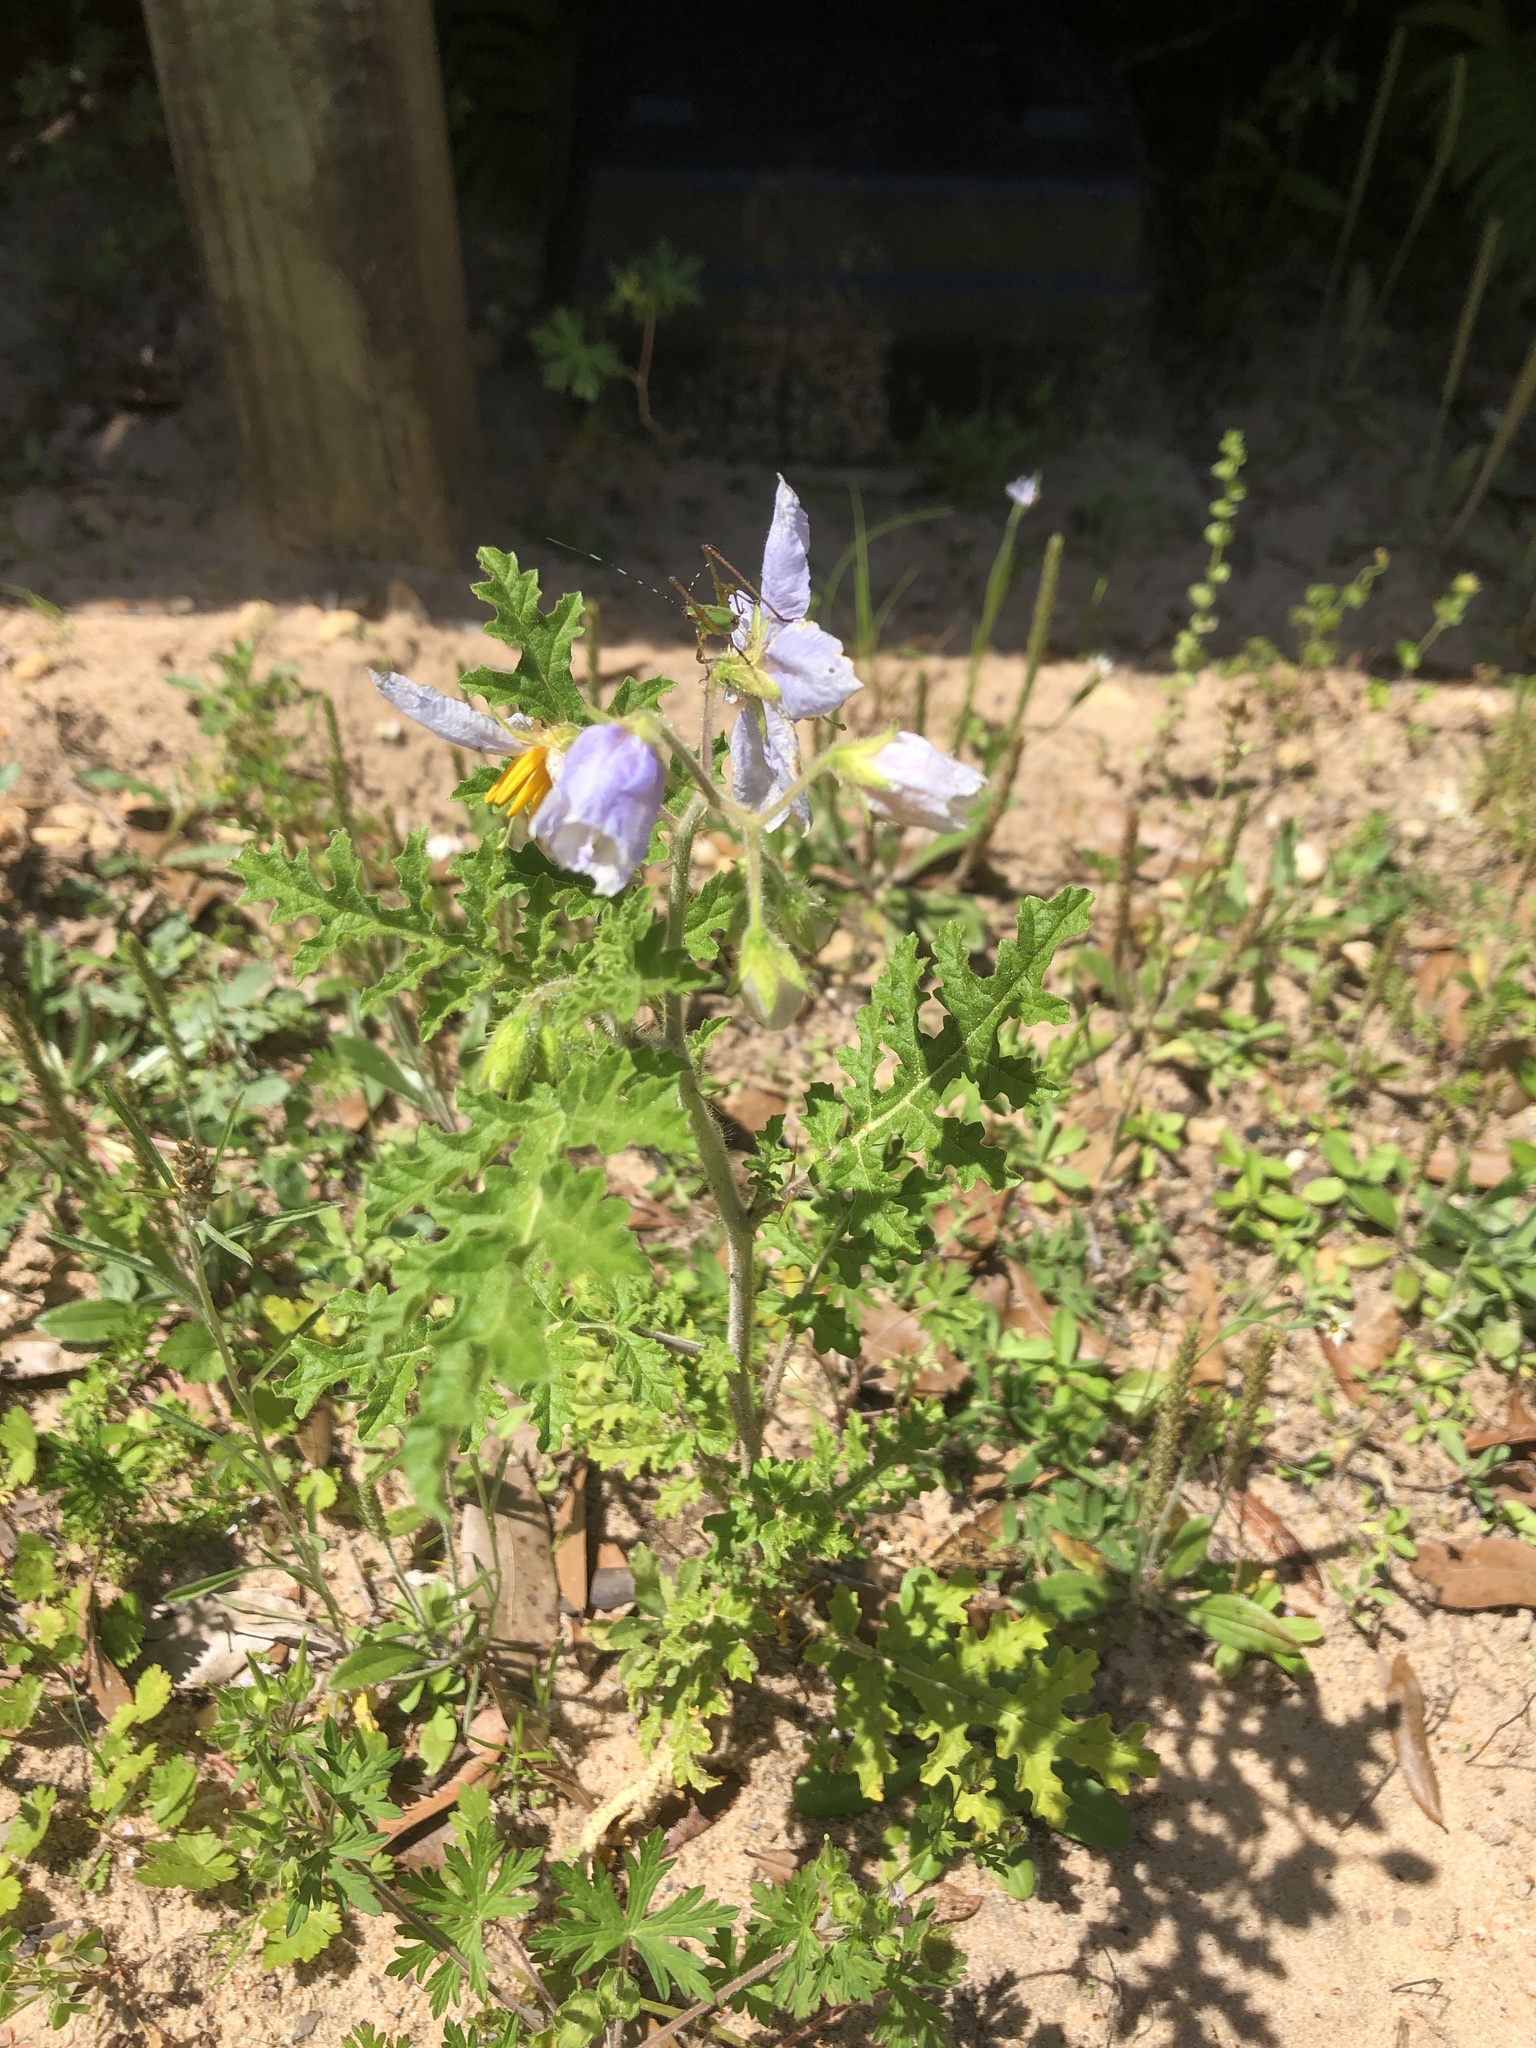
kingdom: Plantae
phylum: Tracheophyta
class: Magnoliopsida
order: Solanales
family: Solanaceae
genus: Solanum
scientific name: Solanum sisymbriifolium
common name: Red buffalo-bur
